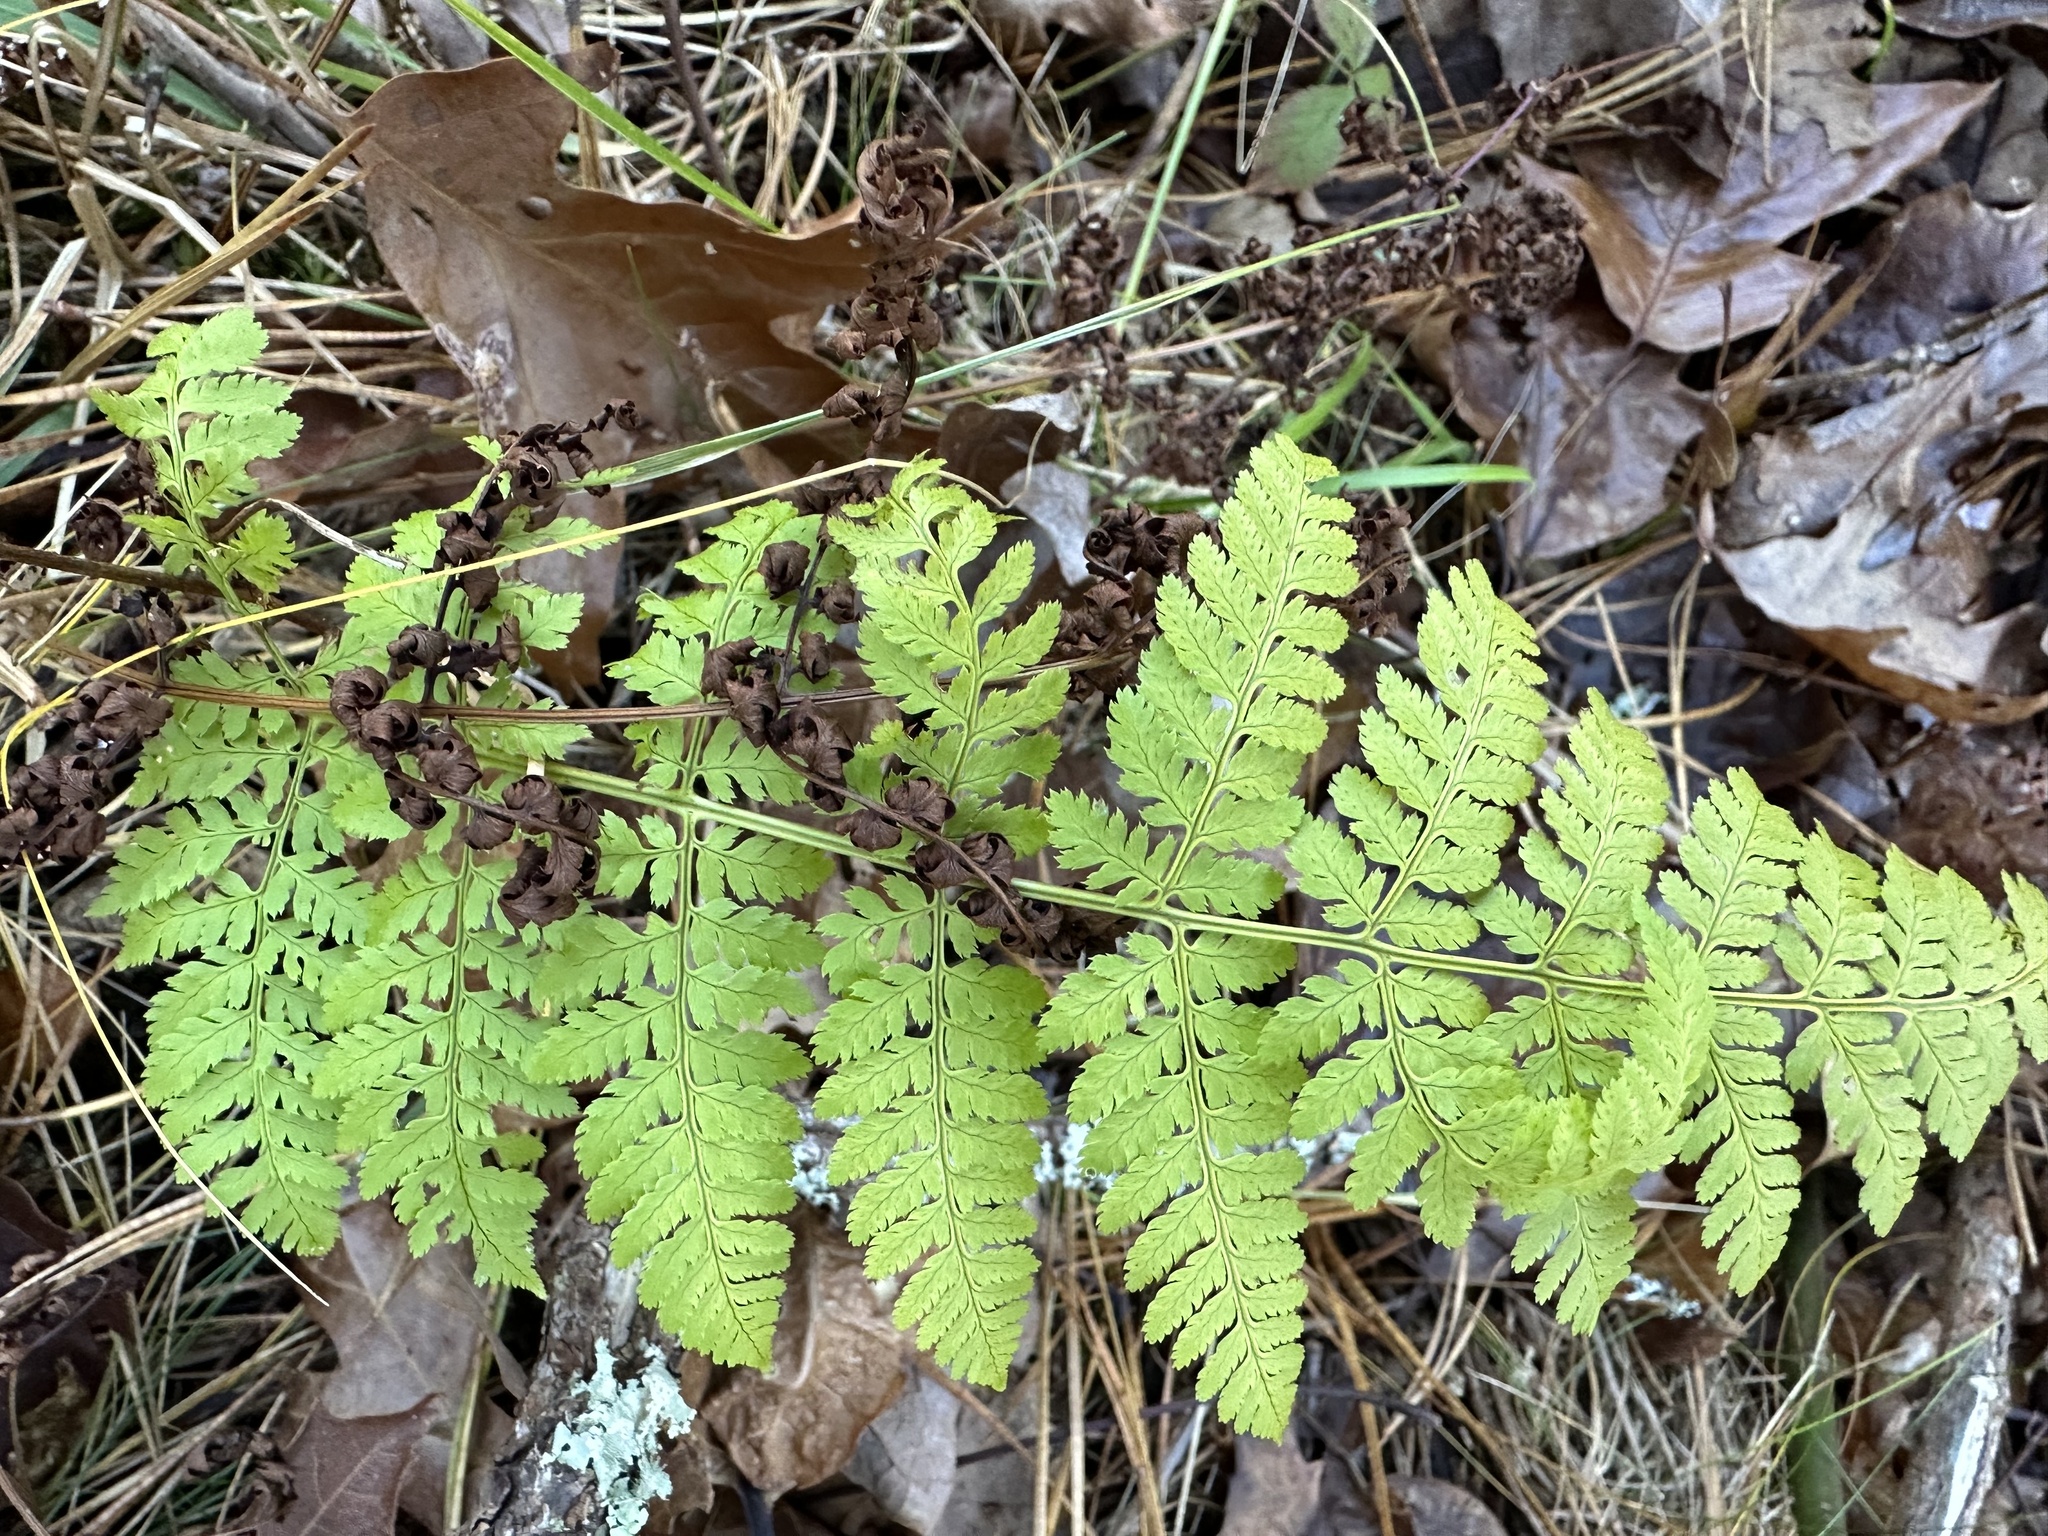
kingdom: Plantae
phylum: Tracheophyta
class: Polypodiopsida
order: Polypodiales
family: Dryopteridaceae
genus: Dryopteris
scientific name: Dryopteris intermedia
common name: Evergreen wood fern
